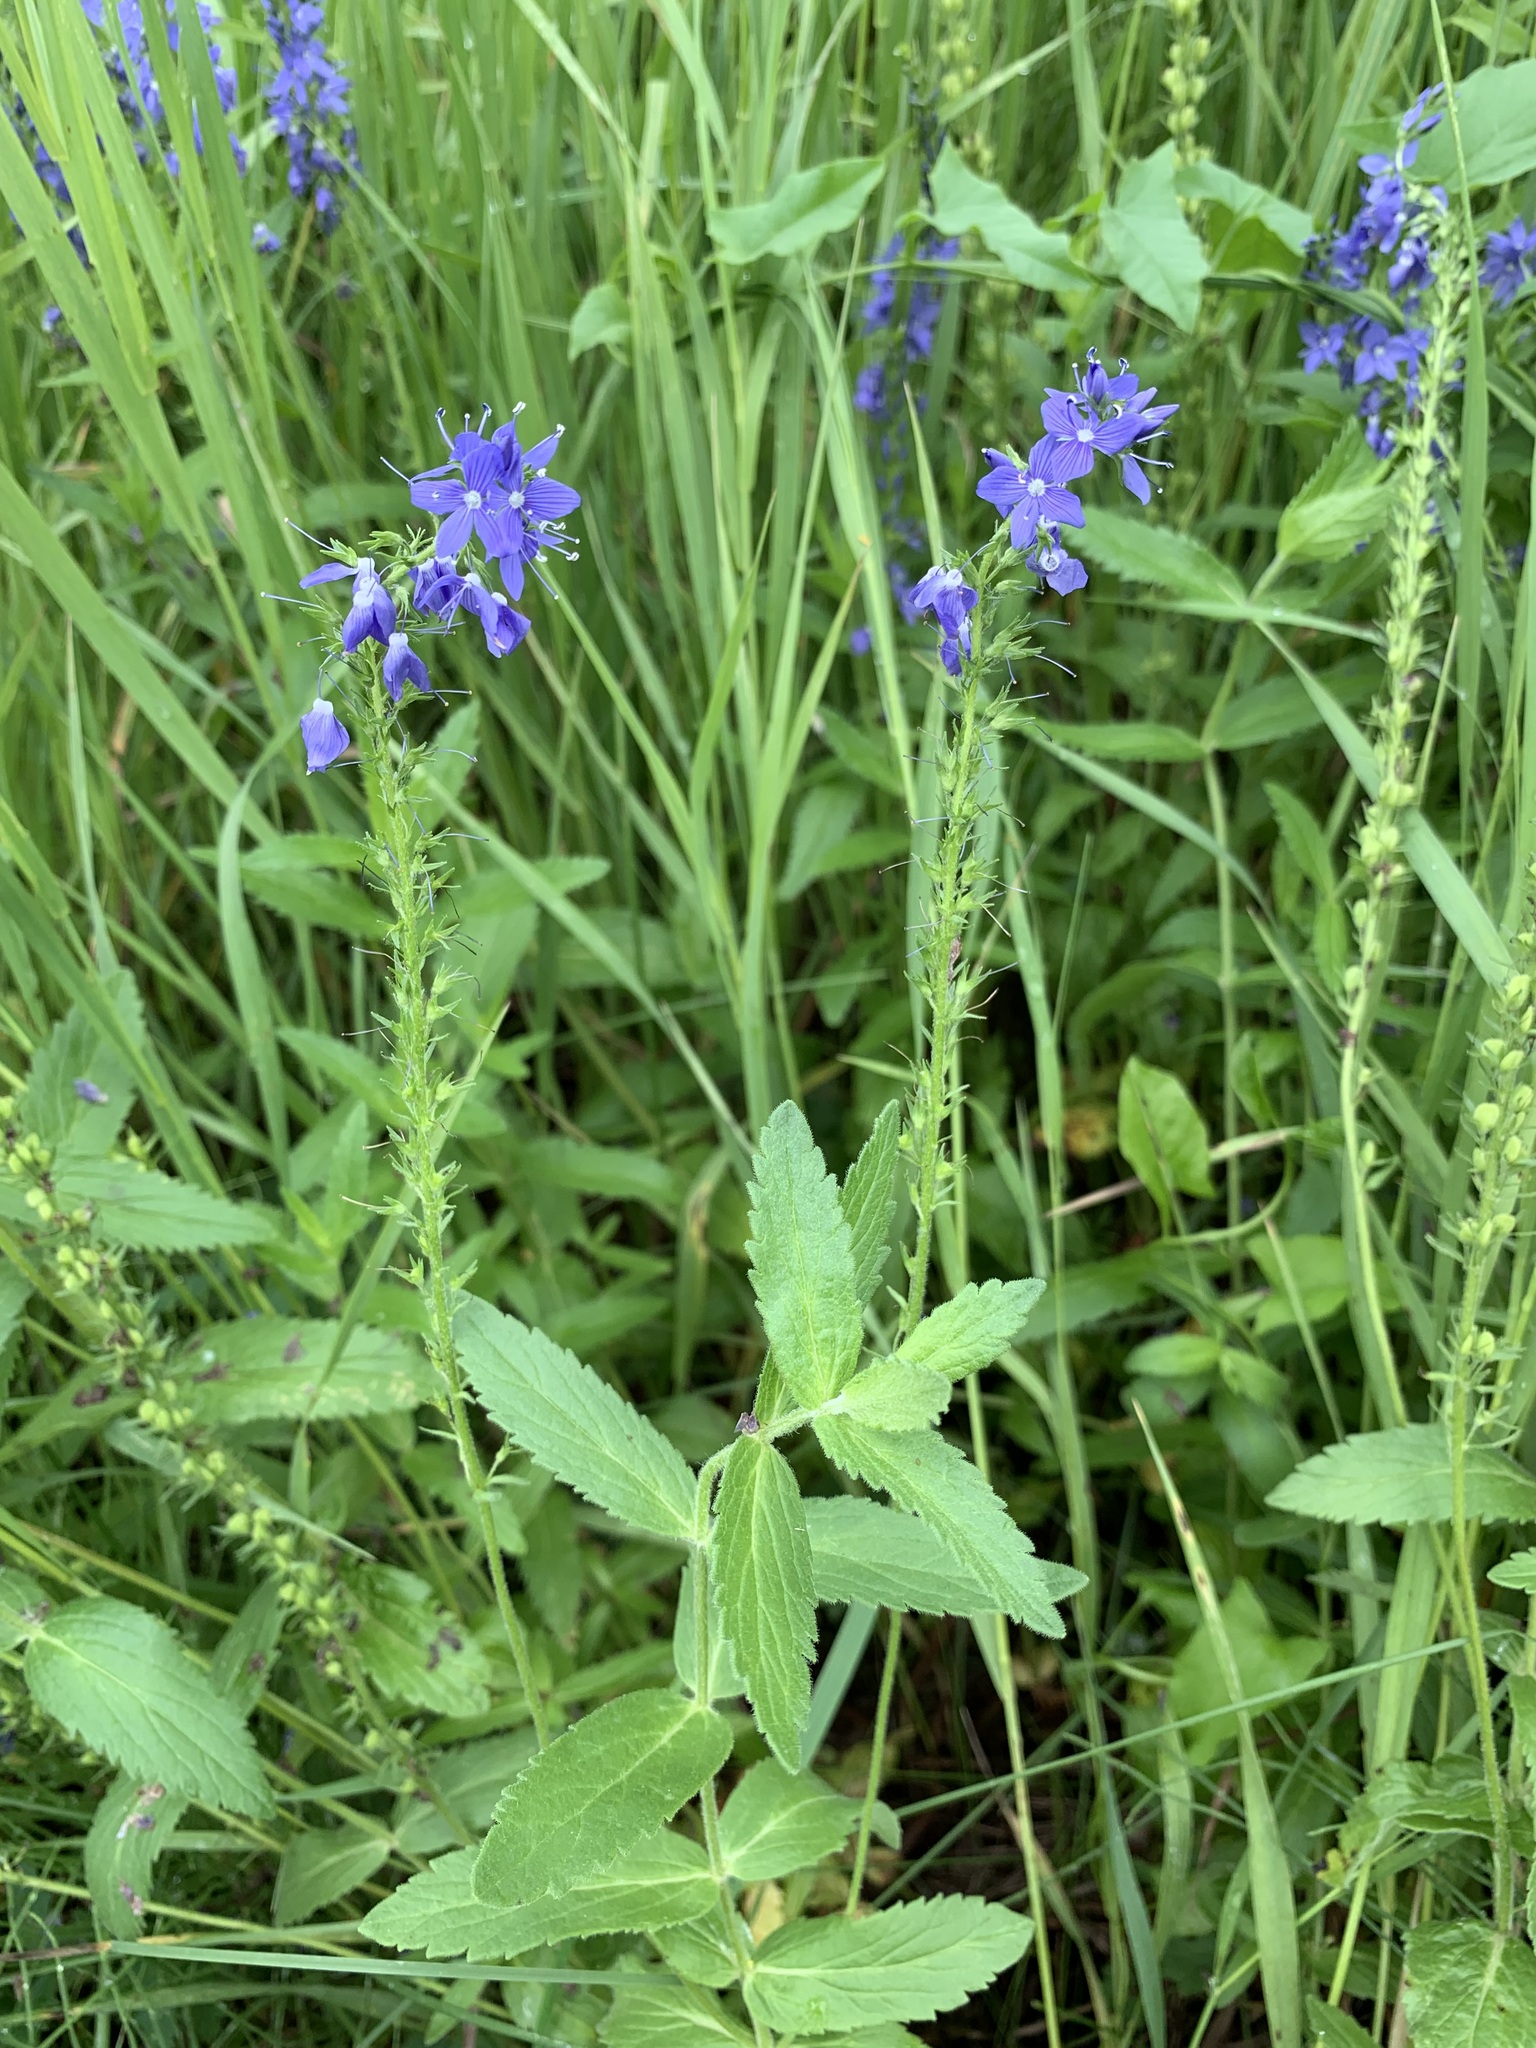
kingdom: Plantae
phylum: Tracheophyta
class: Magnoliopsida
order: Lamiales
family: Plantaginaceae
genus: Veronica
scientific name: Veronica teucrium
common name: Large speedwell
